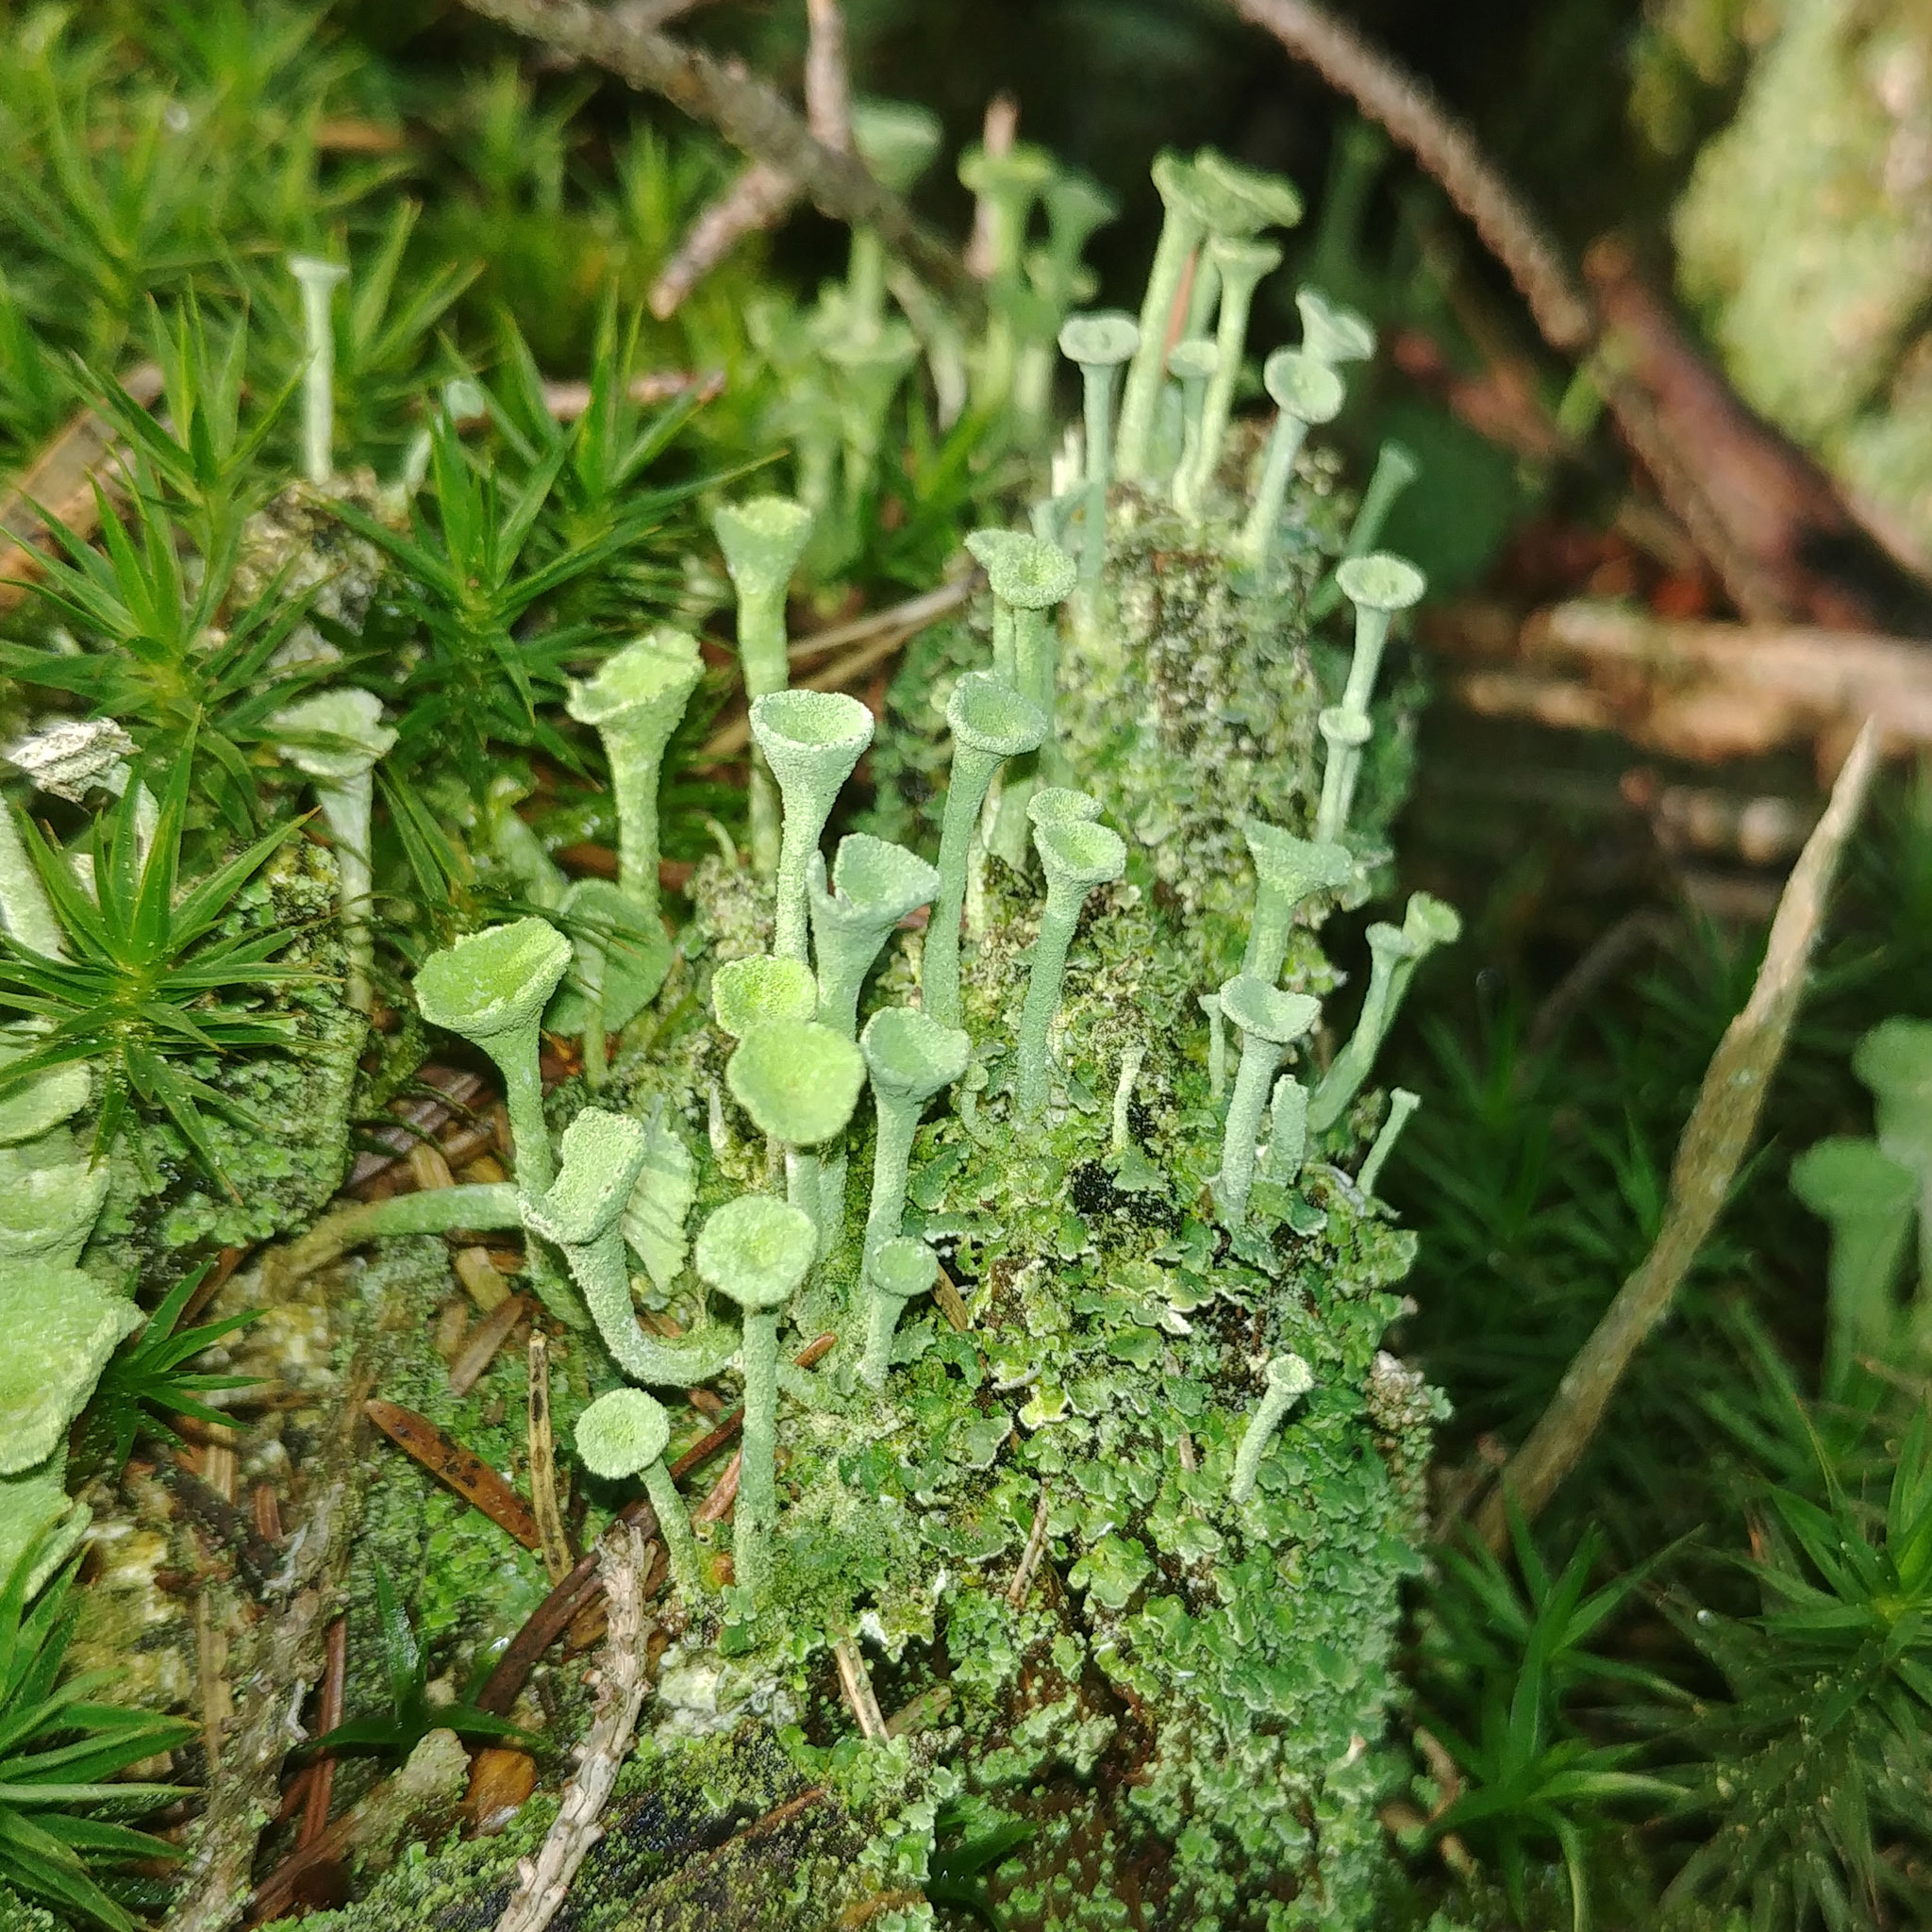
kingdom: Fungi
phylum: Ascomycota
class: Lecanoromycetes
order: Lecanorales
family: Cladoniaceae
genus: Cladonia
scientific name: Cladonia fimbriata
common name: Powdered trumpet lichen
